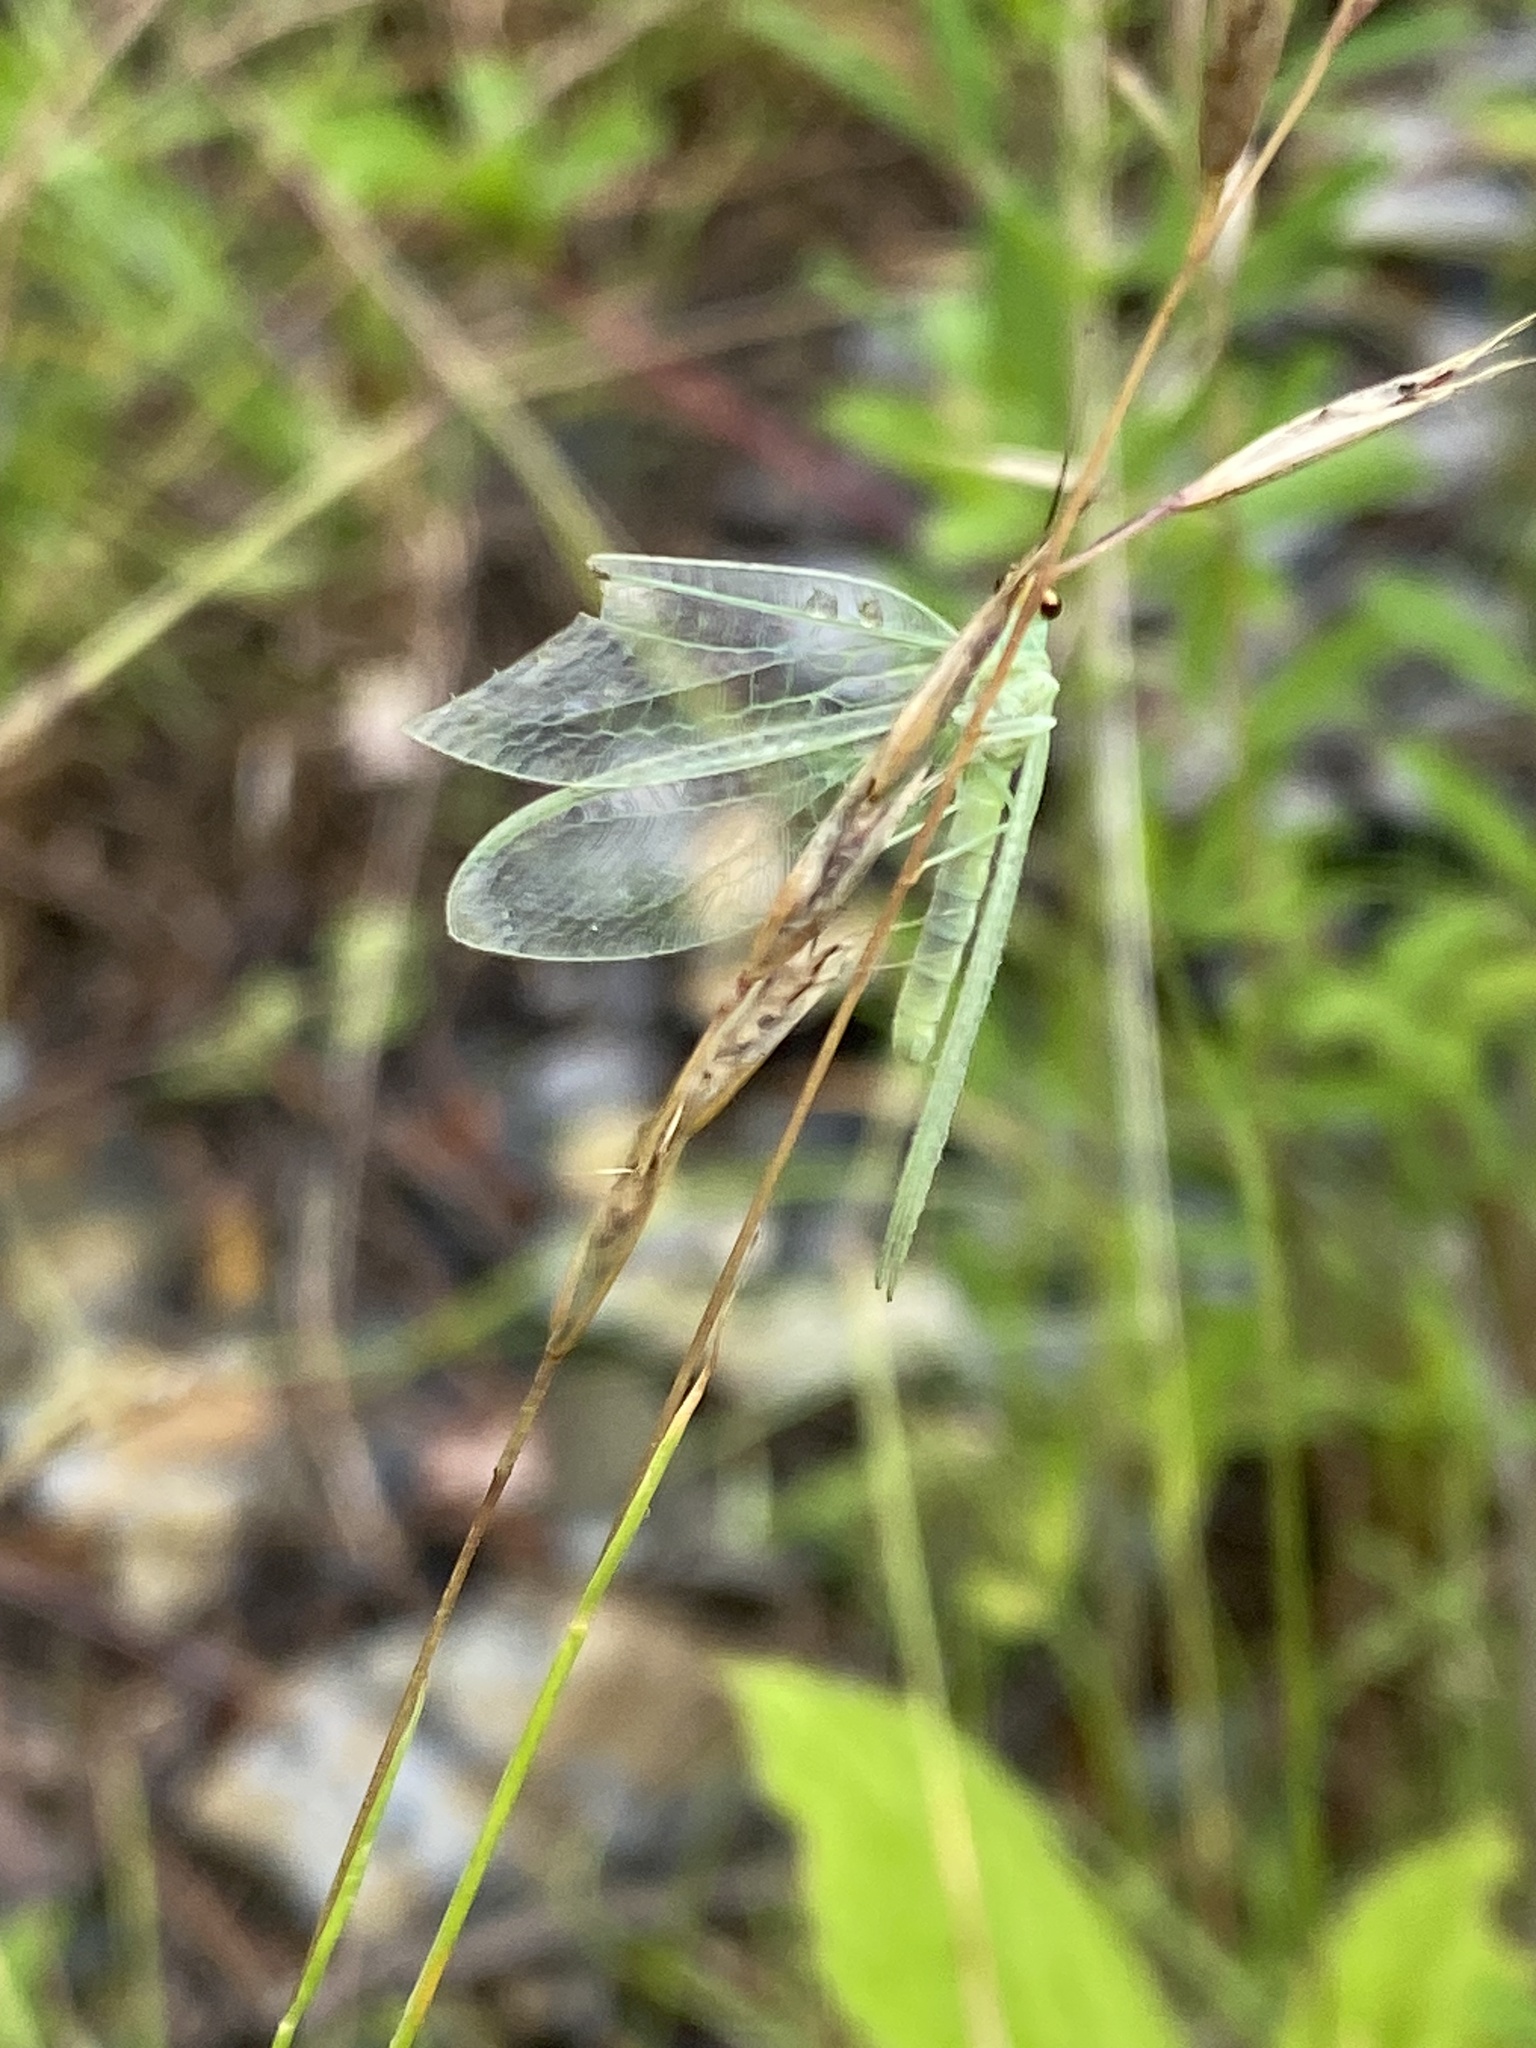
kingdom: Animalia
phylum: Arthropoda
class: Insecta
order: Neuroptera
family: Chrysopidae
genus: Chrysopa
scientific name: Chrysopa nigricornis
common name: Black-horned green lacewing
